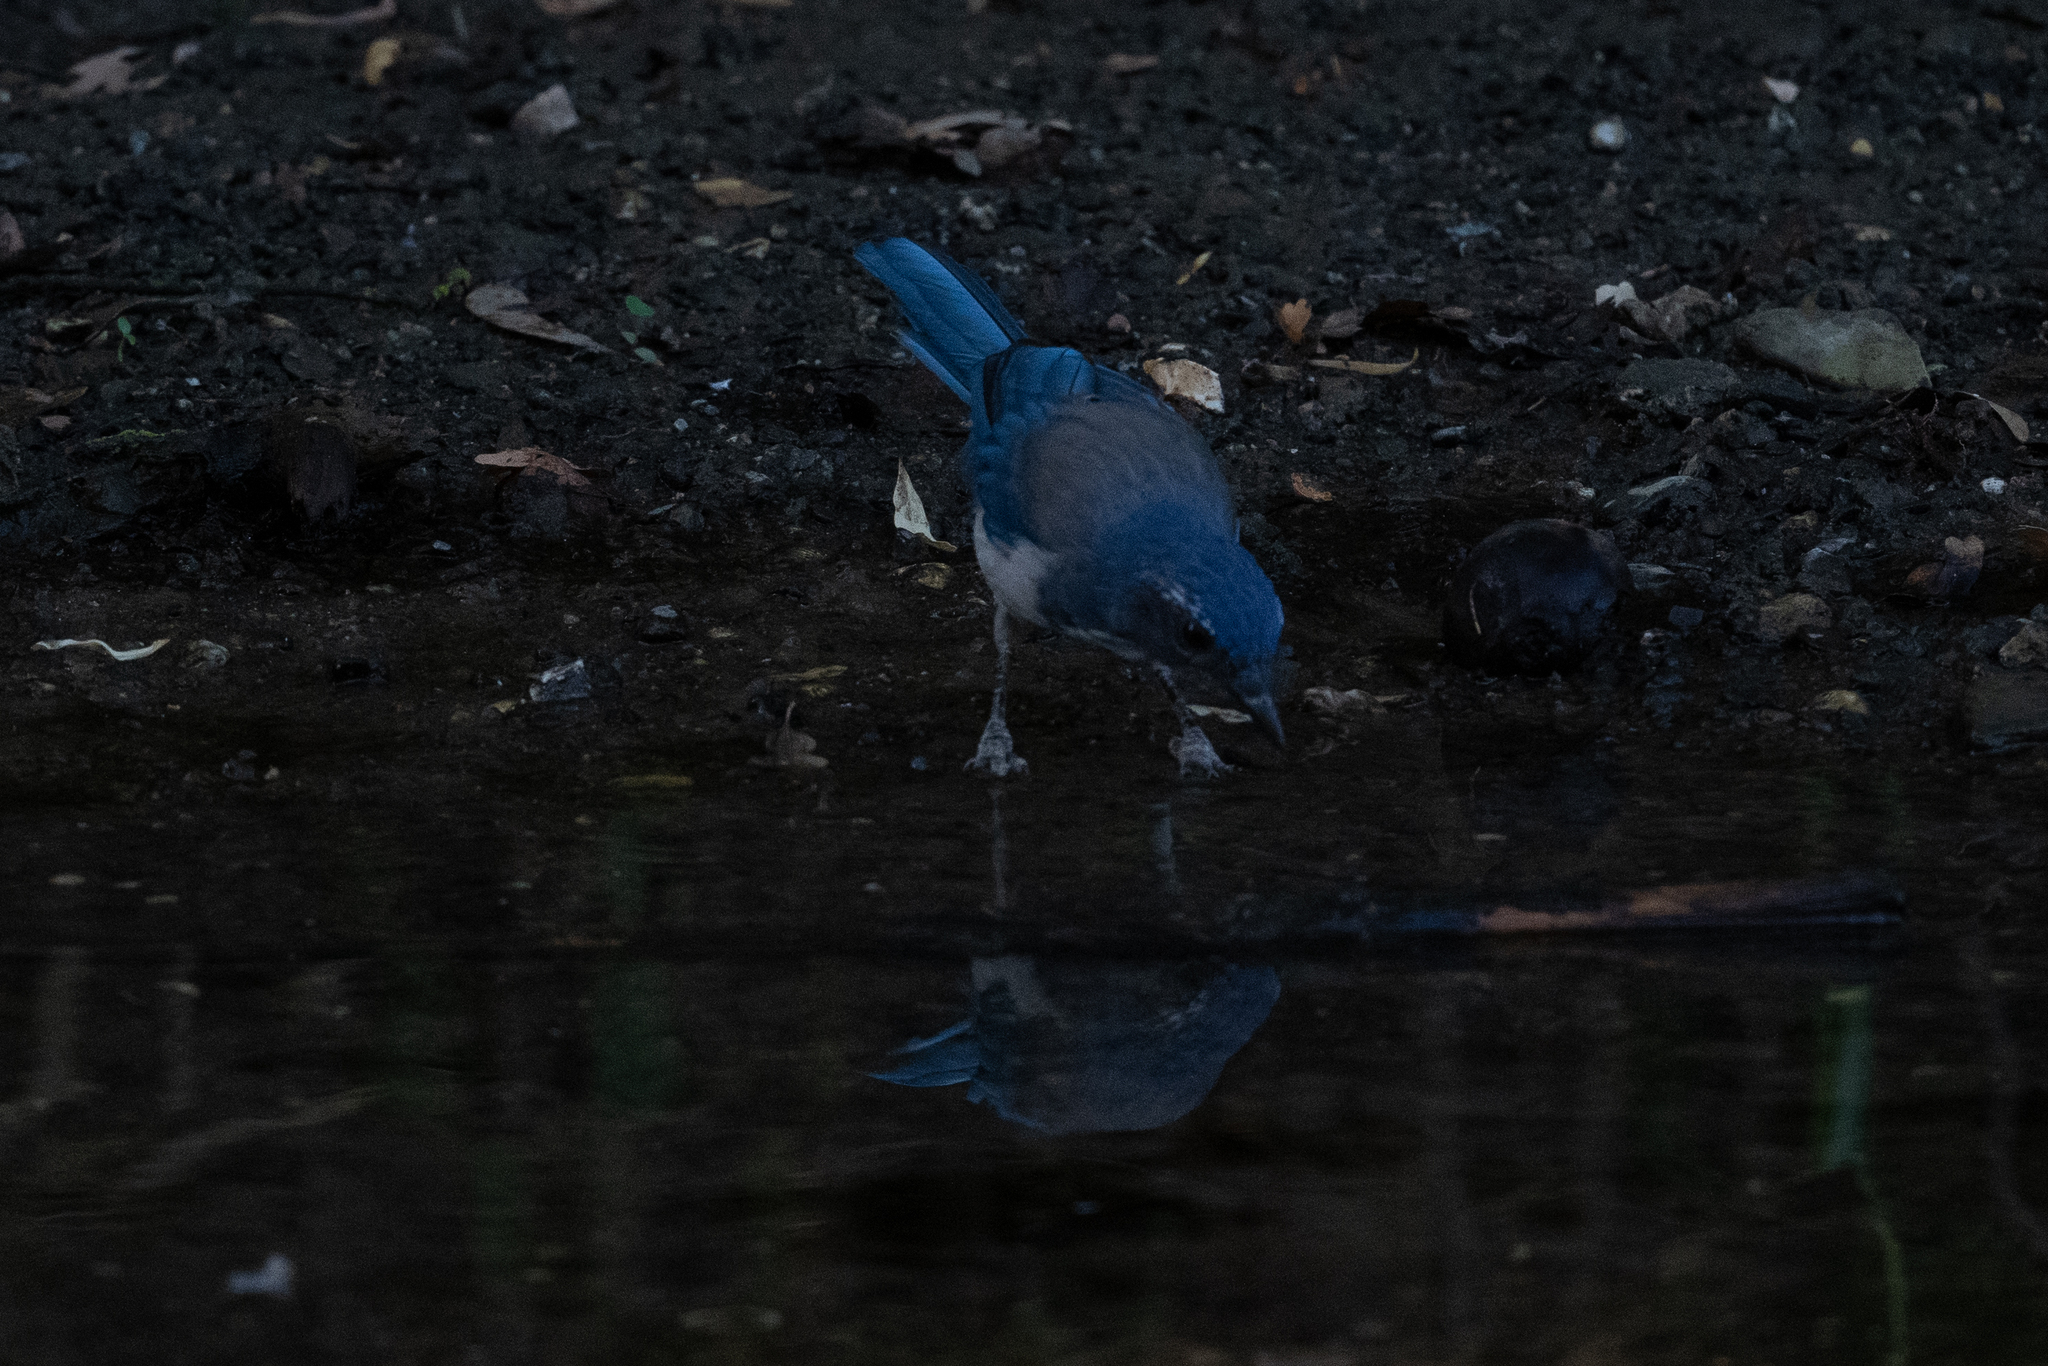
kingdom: Animalia
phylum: Chordata
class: Aves
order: Passeriformes
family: Corvidae
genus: Aphelocoma
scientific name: Aphelocoma californica
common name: California scrub-jay
